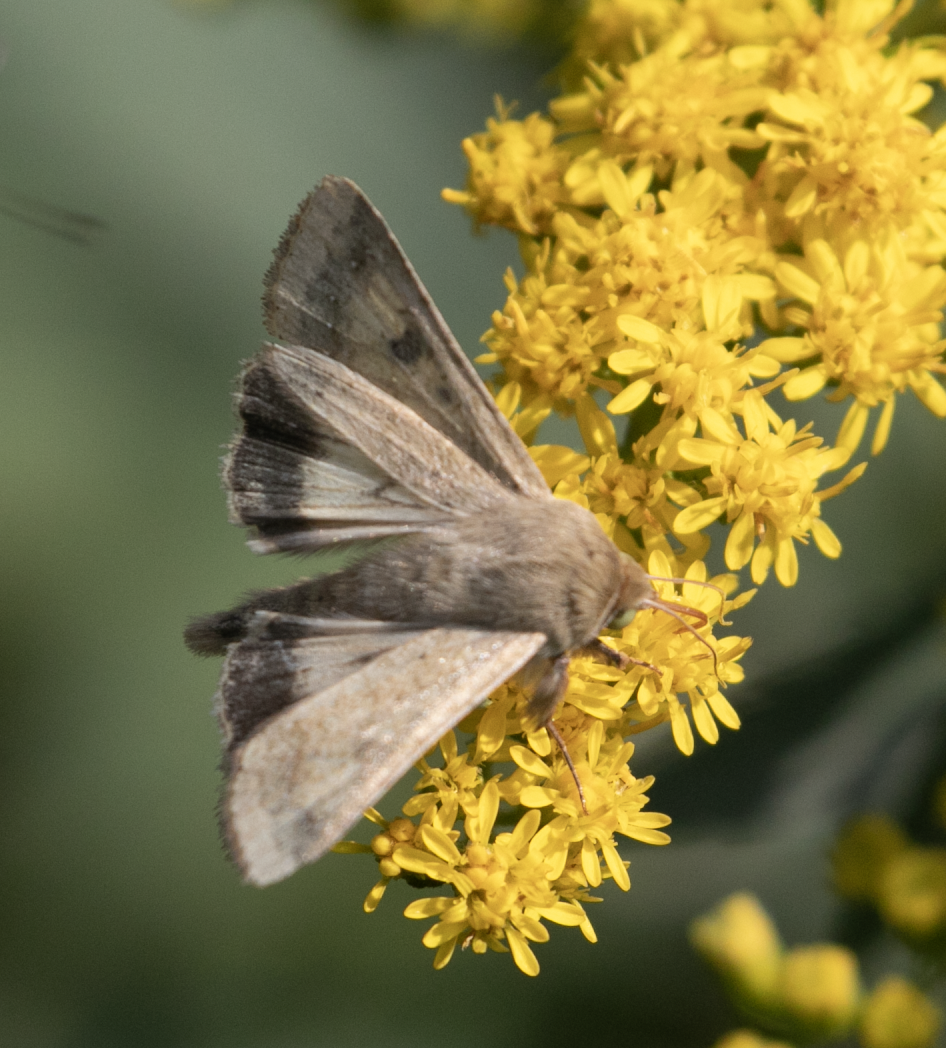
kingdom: Animalia
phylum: Arthropoda
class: Insecta
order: Lepidoptera
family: Noctuidae
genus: Helicoverpa
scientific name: Helicoverpa armigera
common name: Cotton bollworm
